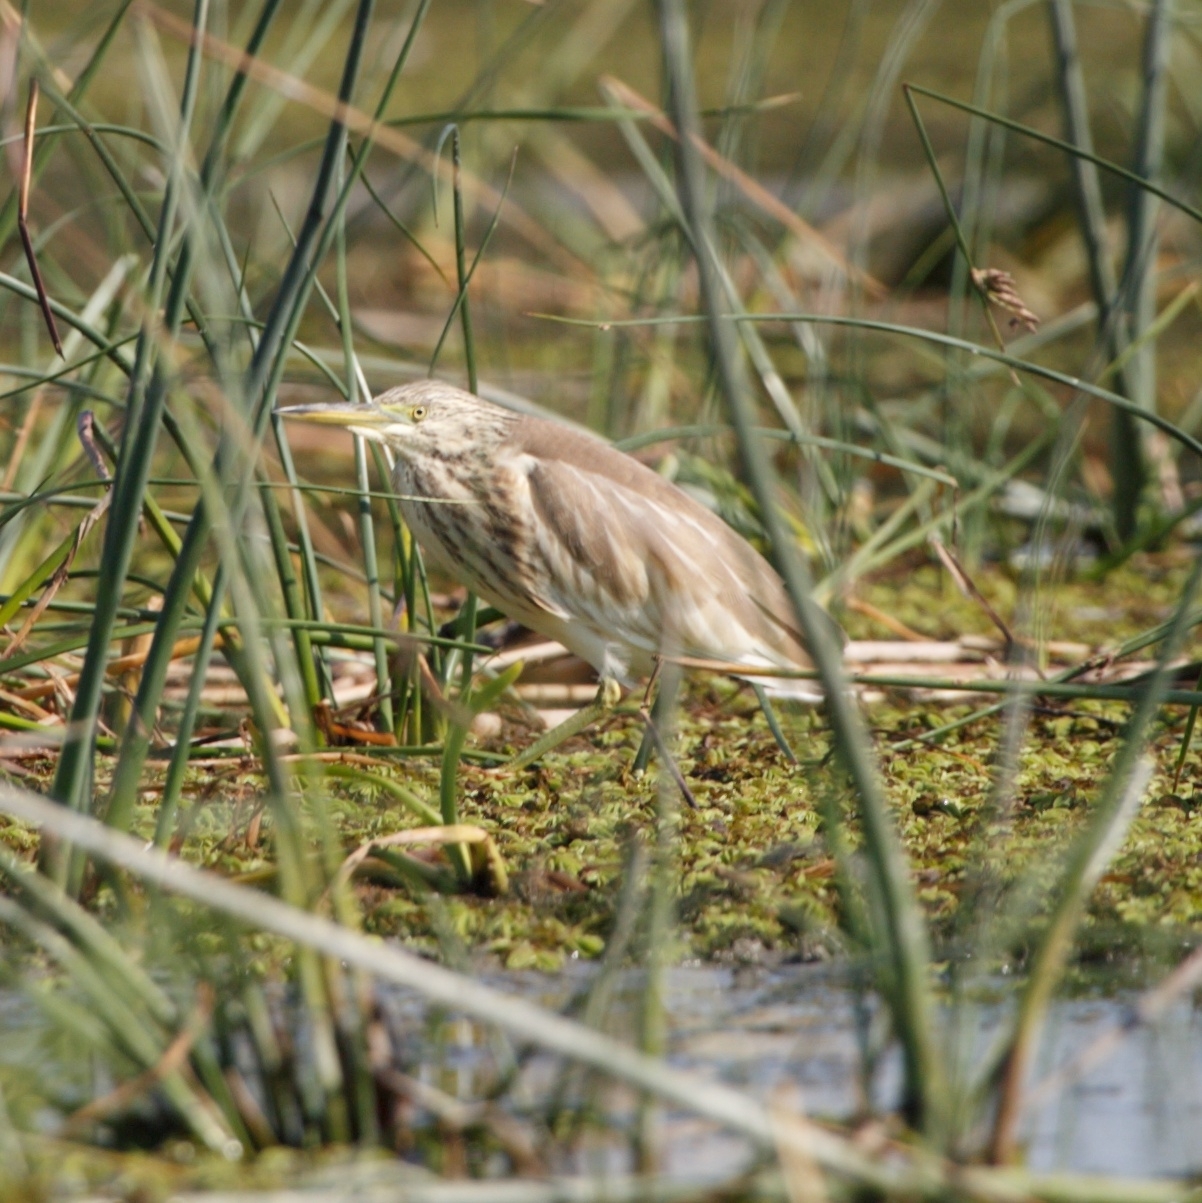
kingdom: Animalia
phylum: Chordata
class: Aves
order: Pelecaniformes
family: Ardeidae
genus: Ardeola
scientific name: Ardeola ralloides
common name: Squacco heron
